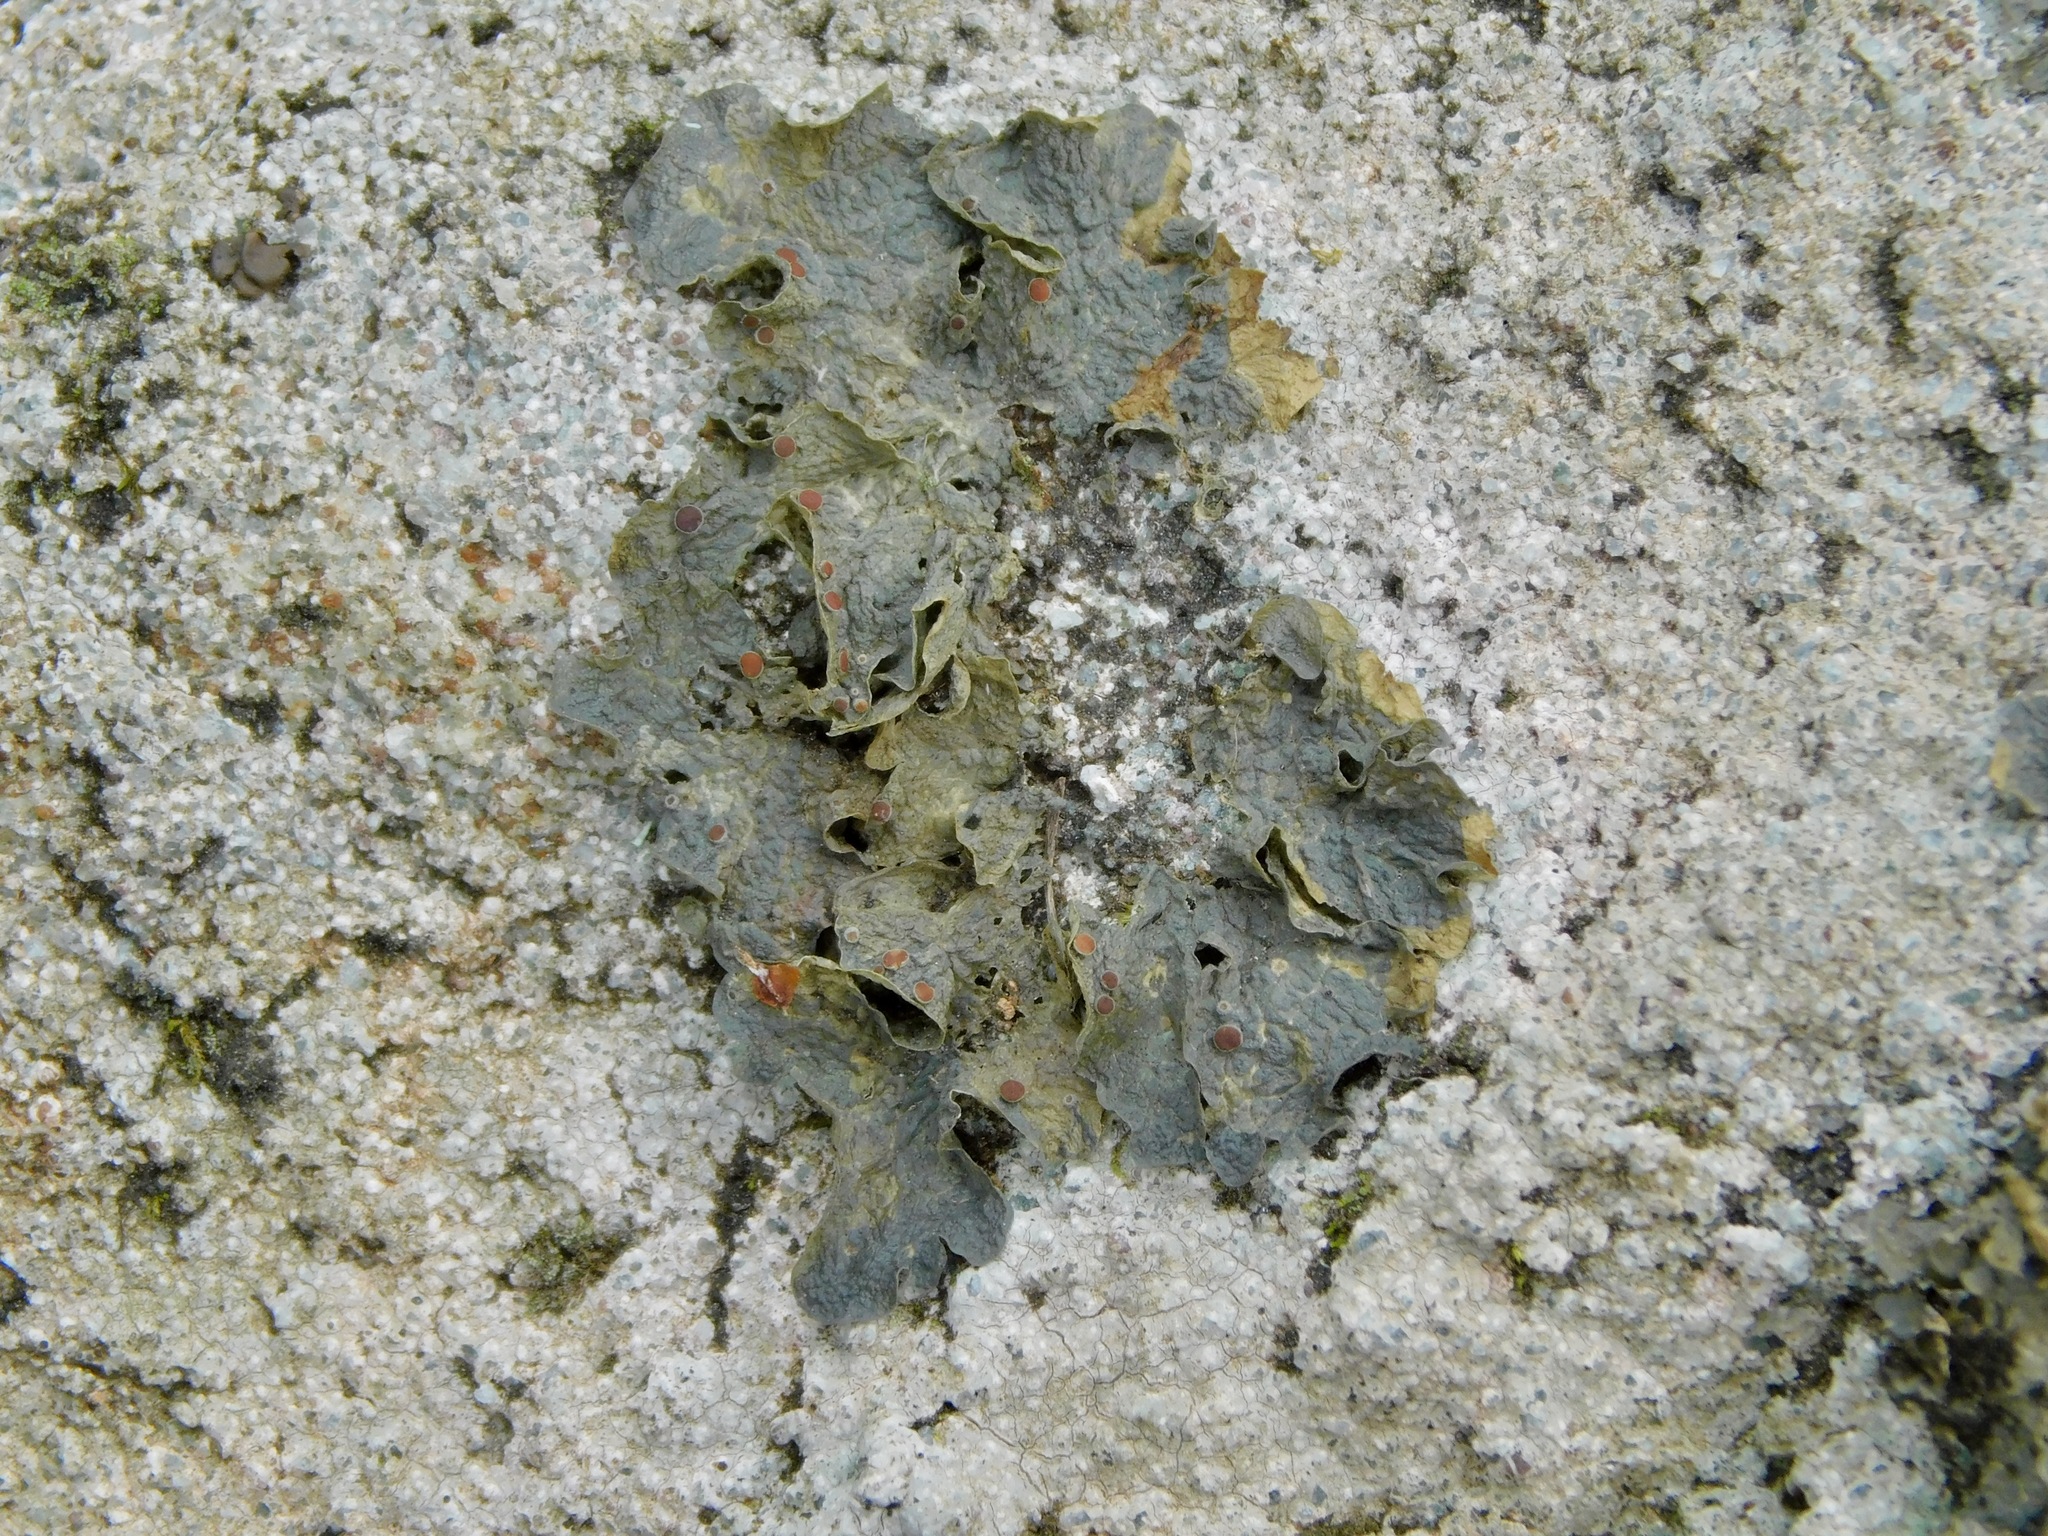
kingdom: Fungi
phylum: Ascomycota
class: Lecanoromycetes
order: Peltigerales
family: Collemataceae
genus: Leptogium
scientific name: Leptogium corticola
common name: Blistered jellyskin lichen
